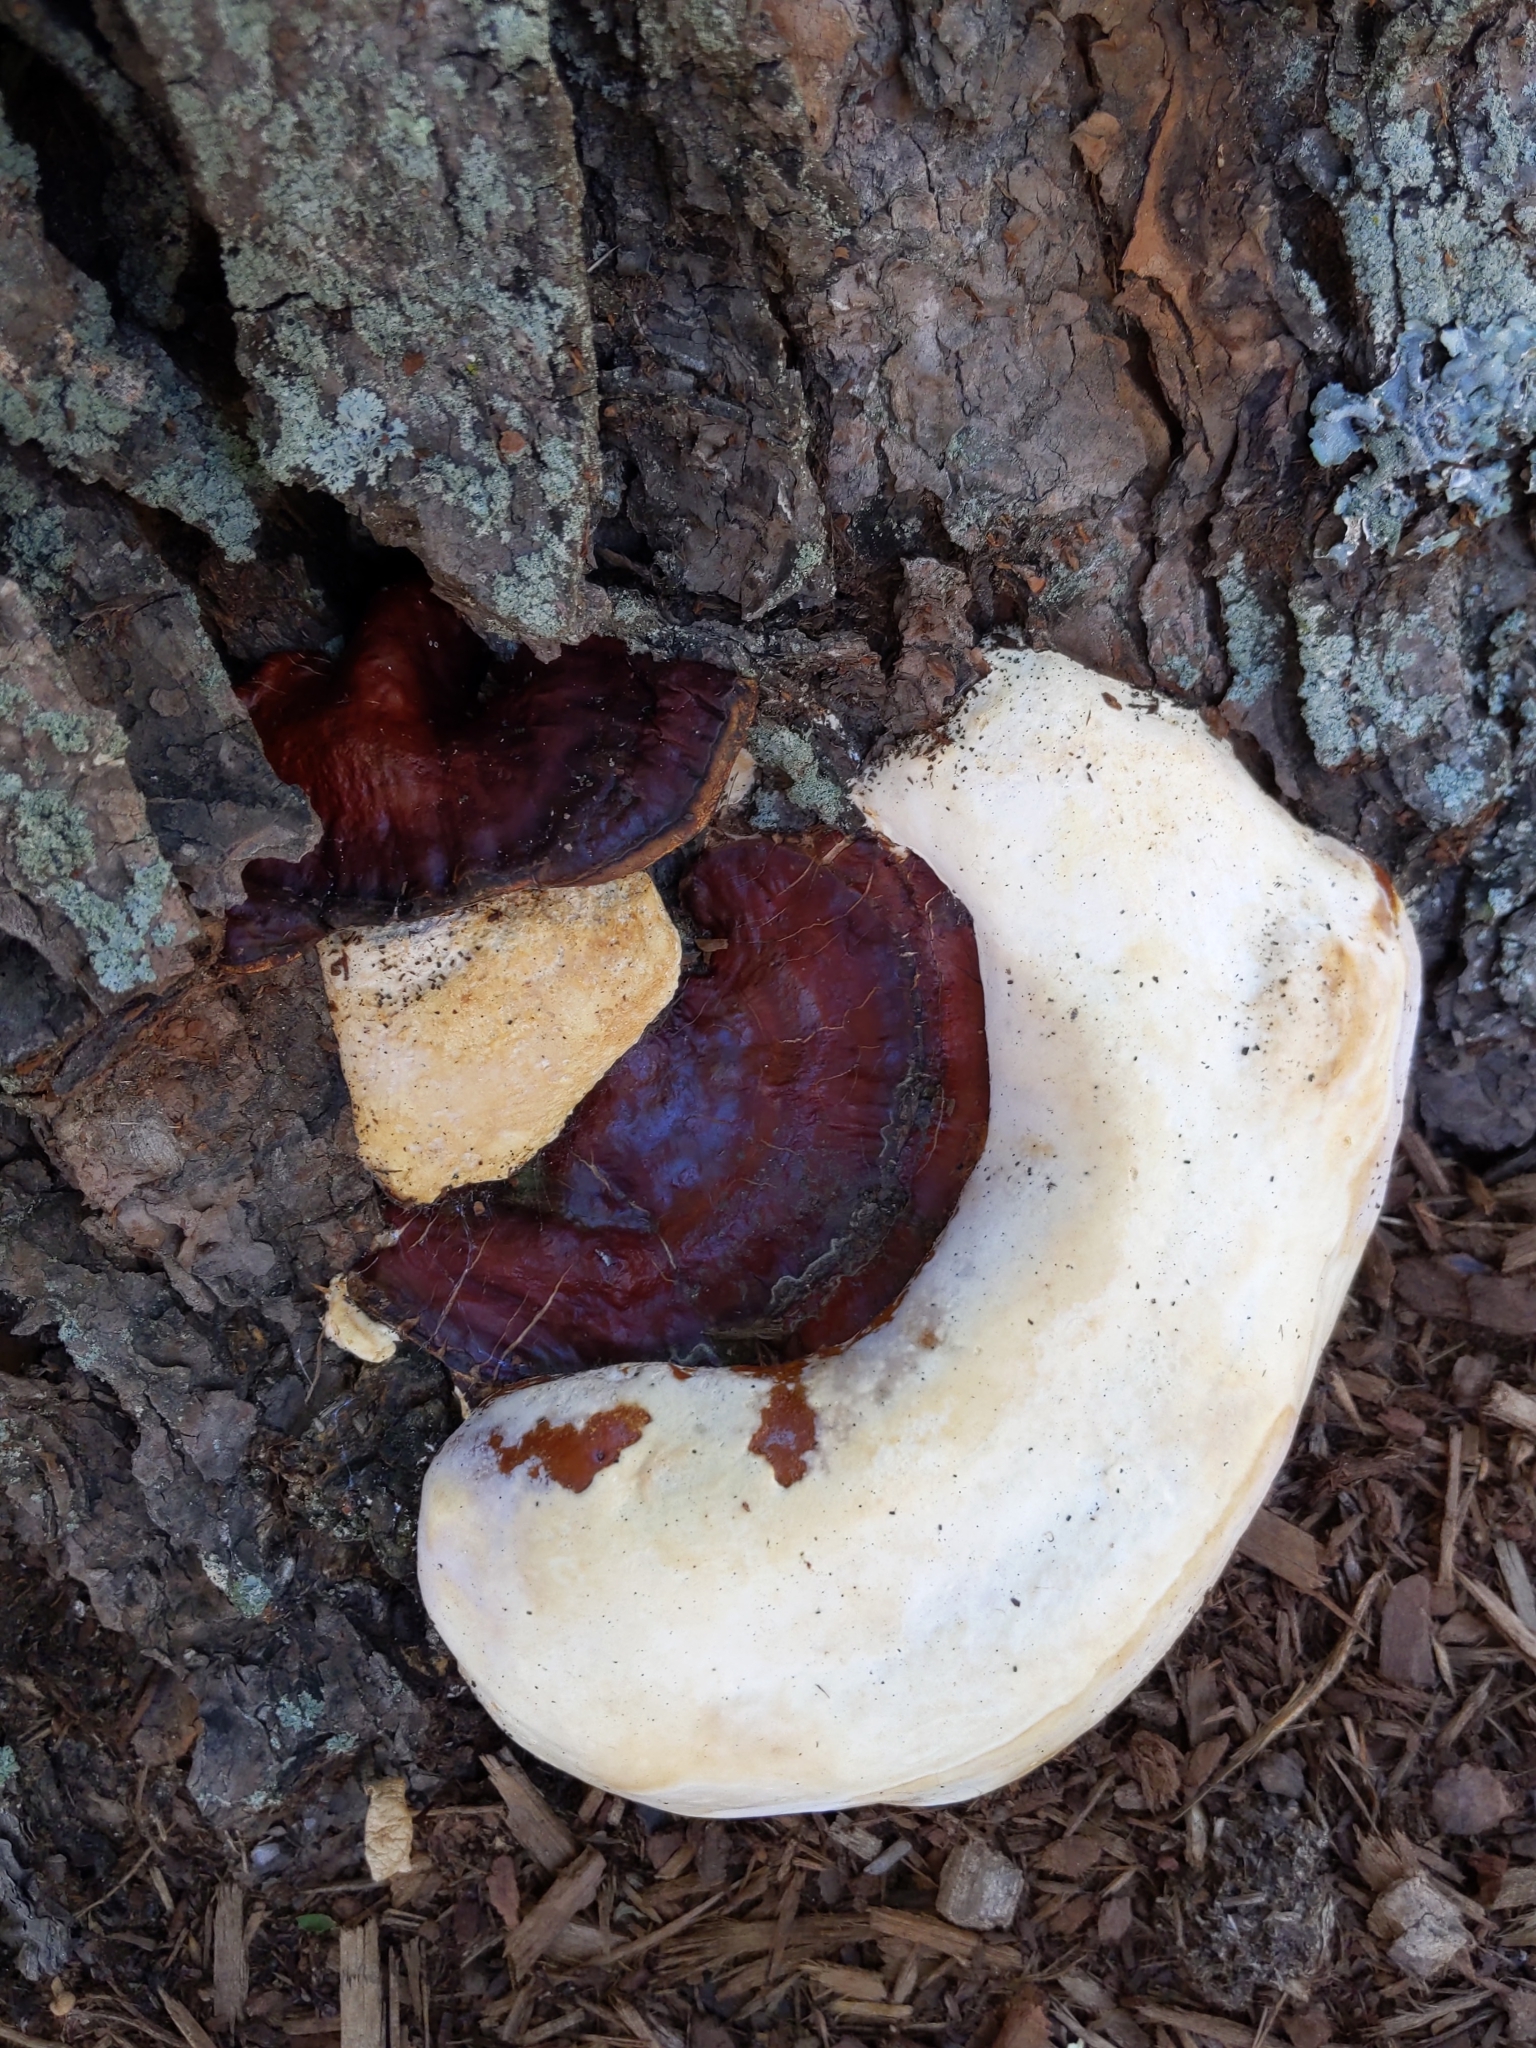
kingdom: Fungi
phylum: Basidiomycota
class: Agaricomycetes
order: Polyporales
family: Polyporaceae
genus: Ganoderma
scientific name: Ganoderma
